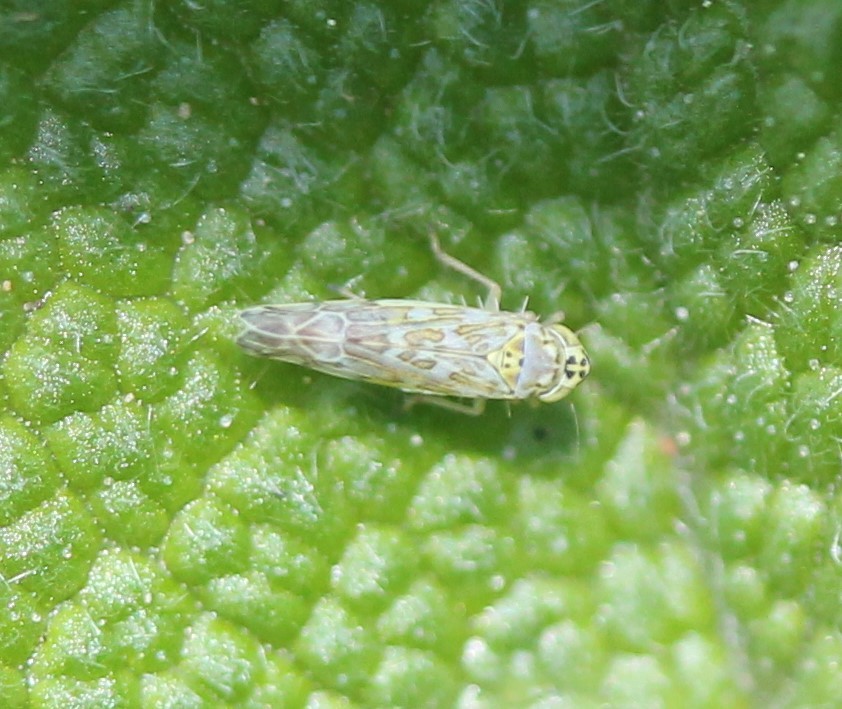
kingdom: Animalia
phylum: Arthropoda
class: Insecta
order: Hemiptera
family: Cicadellidae
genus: Eupteryx
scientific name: Eupteryx decemnotata
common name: Ligurian leafhopper
